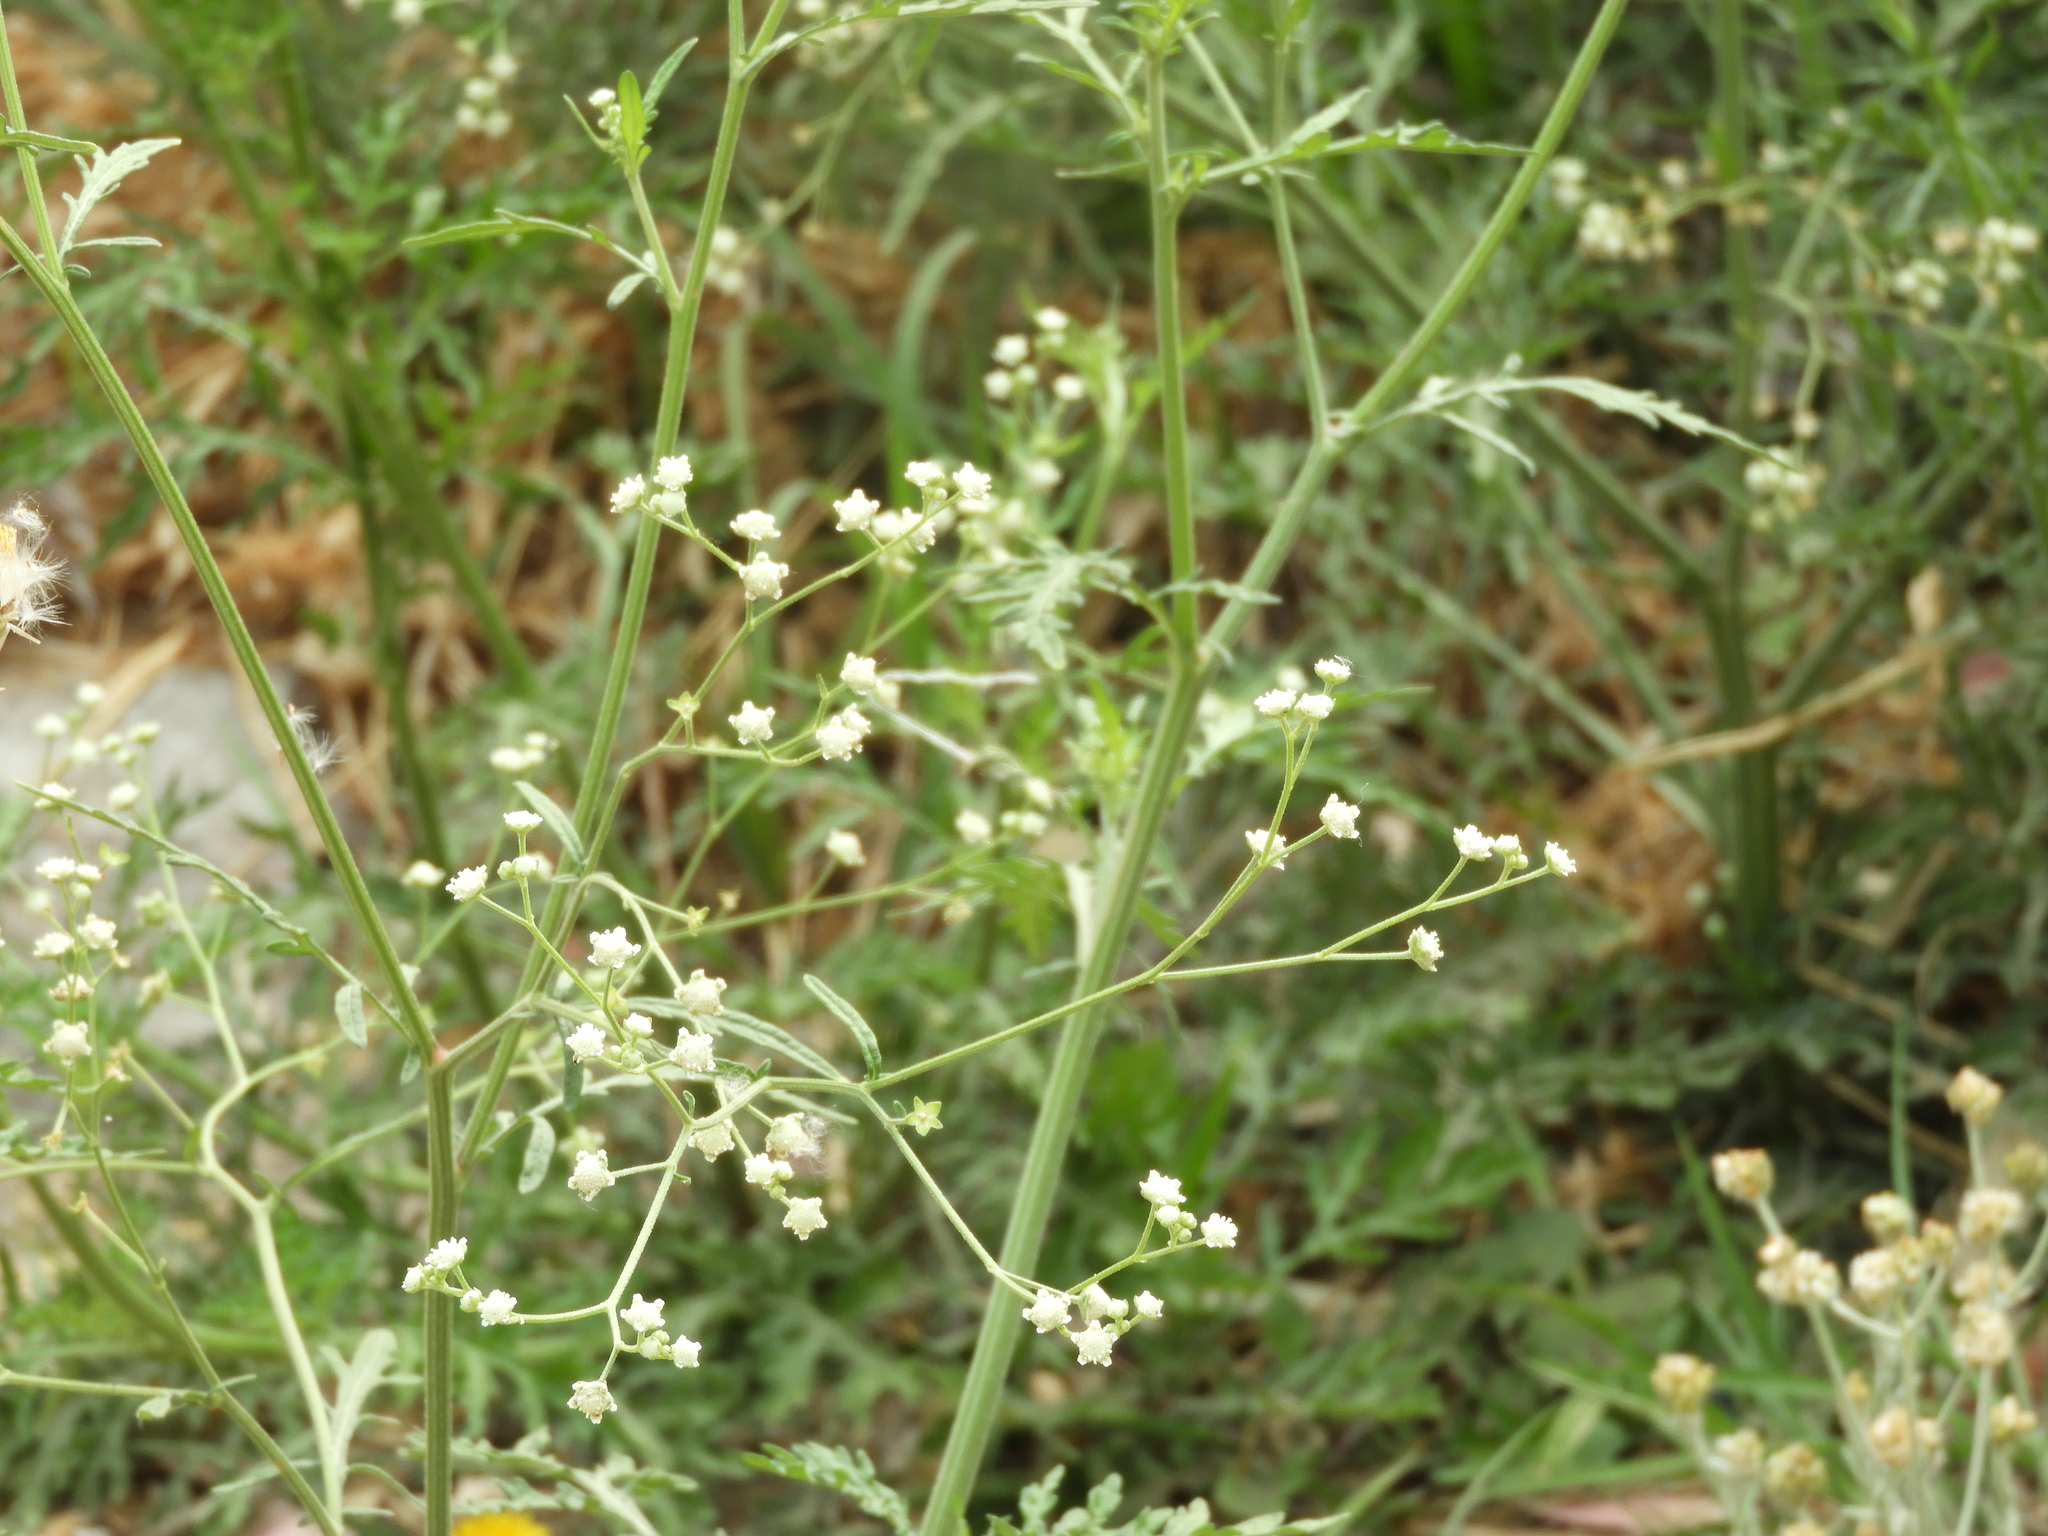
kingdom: Plantae
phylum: Tracheophyta
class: Magnoliopsida
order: Asterales
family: Asteraceae
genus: Parthenium
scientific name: Parthenium hysterophorus
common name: Santa maria feverfew
